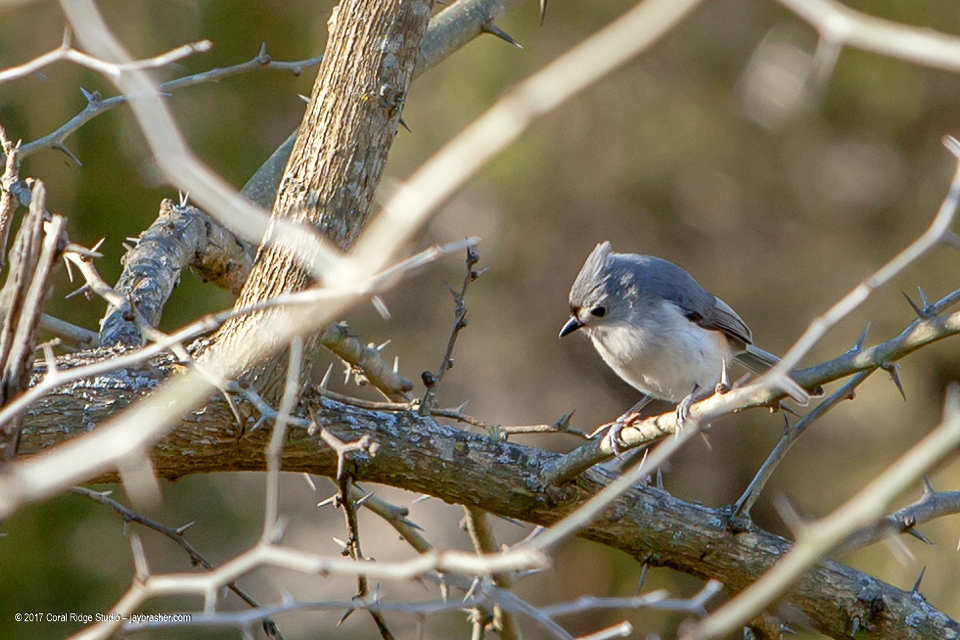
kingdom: Animalia
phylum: Chordata
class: Aves
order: Passeriformes
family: Paridae
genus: Baeolophus
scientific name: Baeolophus bicolor
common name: Tufted titmouse
